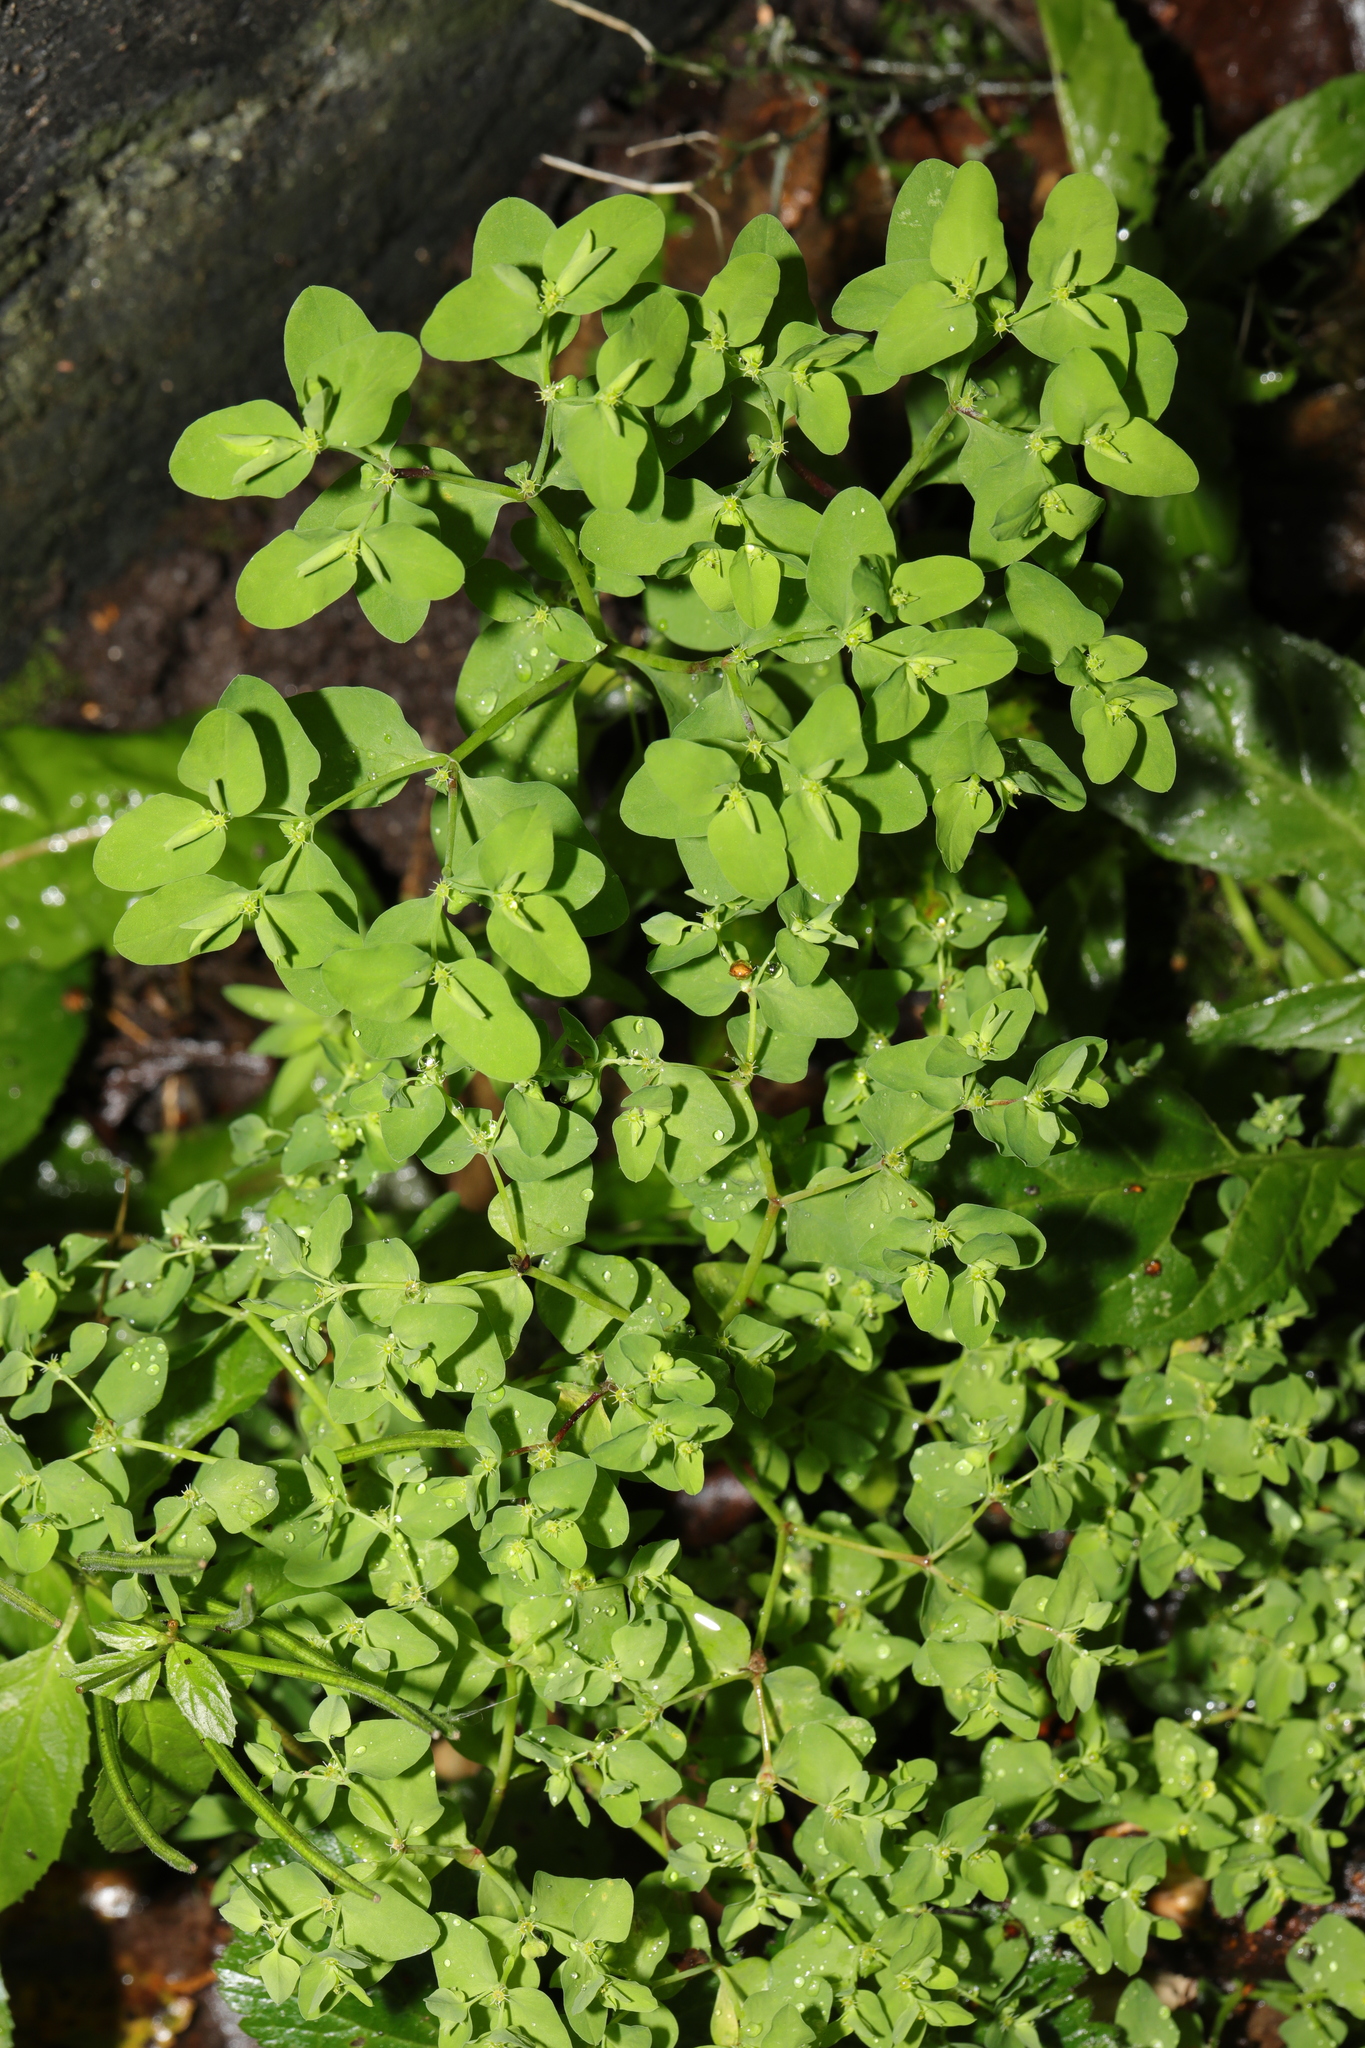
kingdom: Plantae
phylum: Tracheophyta
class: Magnoliopsida
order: Malpighiales
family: Euphorbiaceae
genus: Euphorbia
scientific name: Euphorbia peplus
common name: Petty spurge
